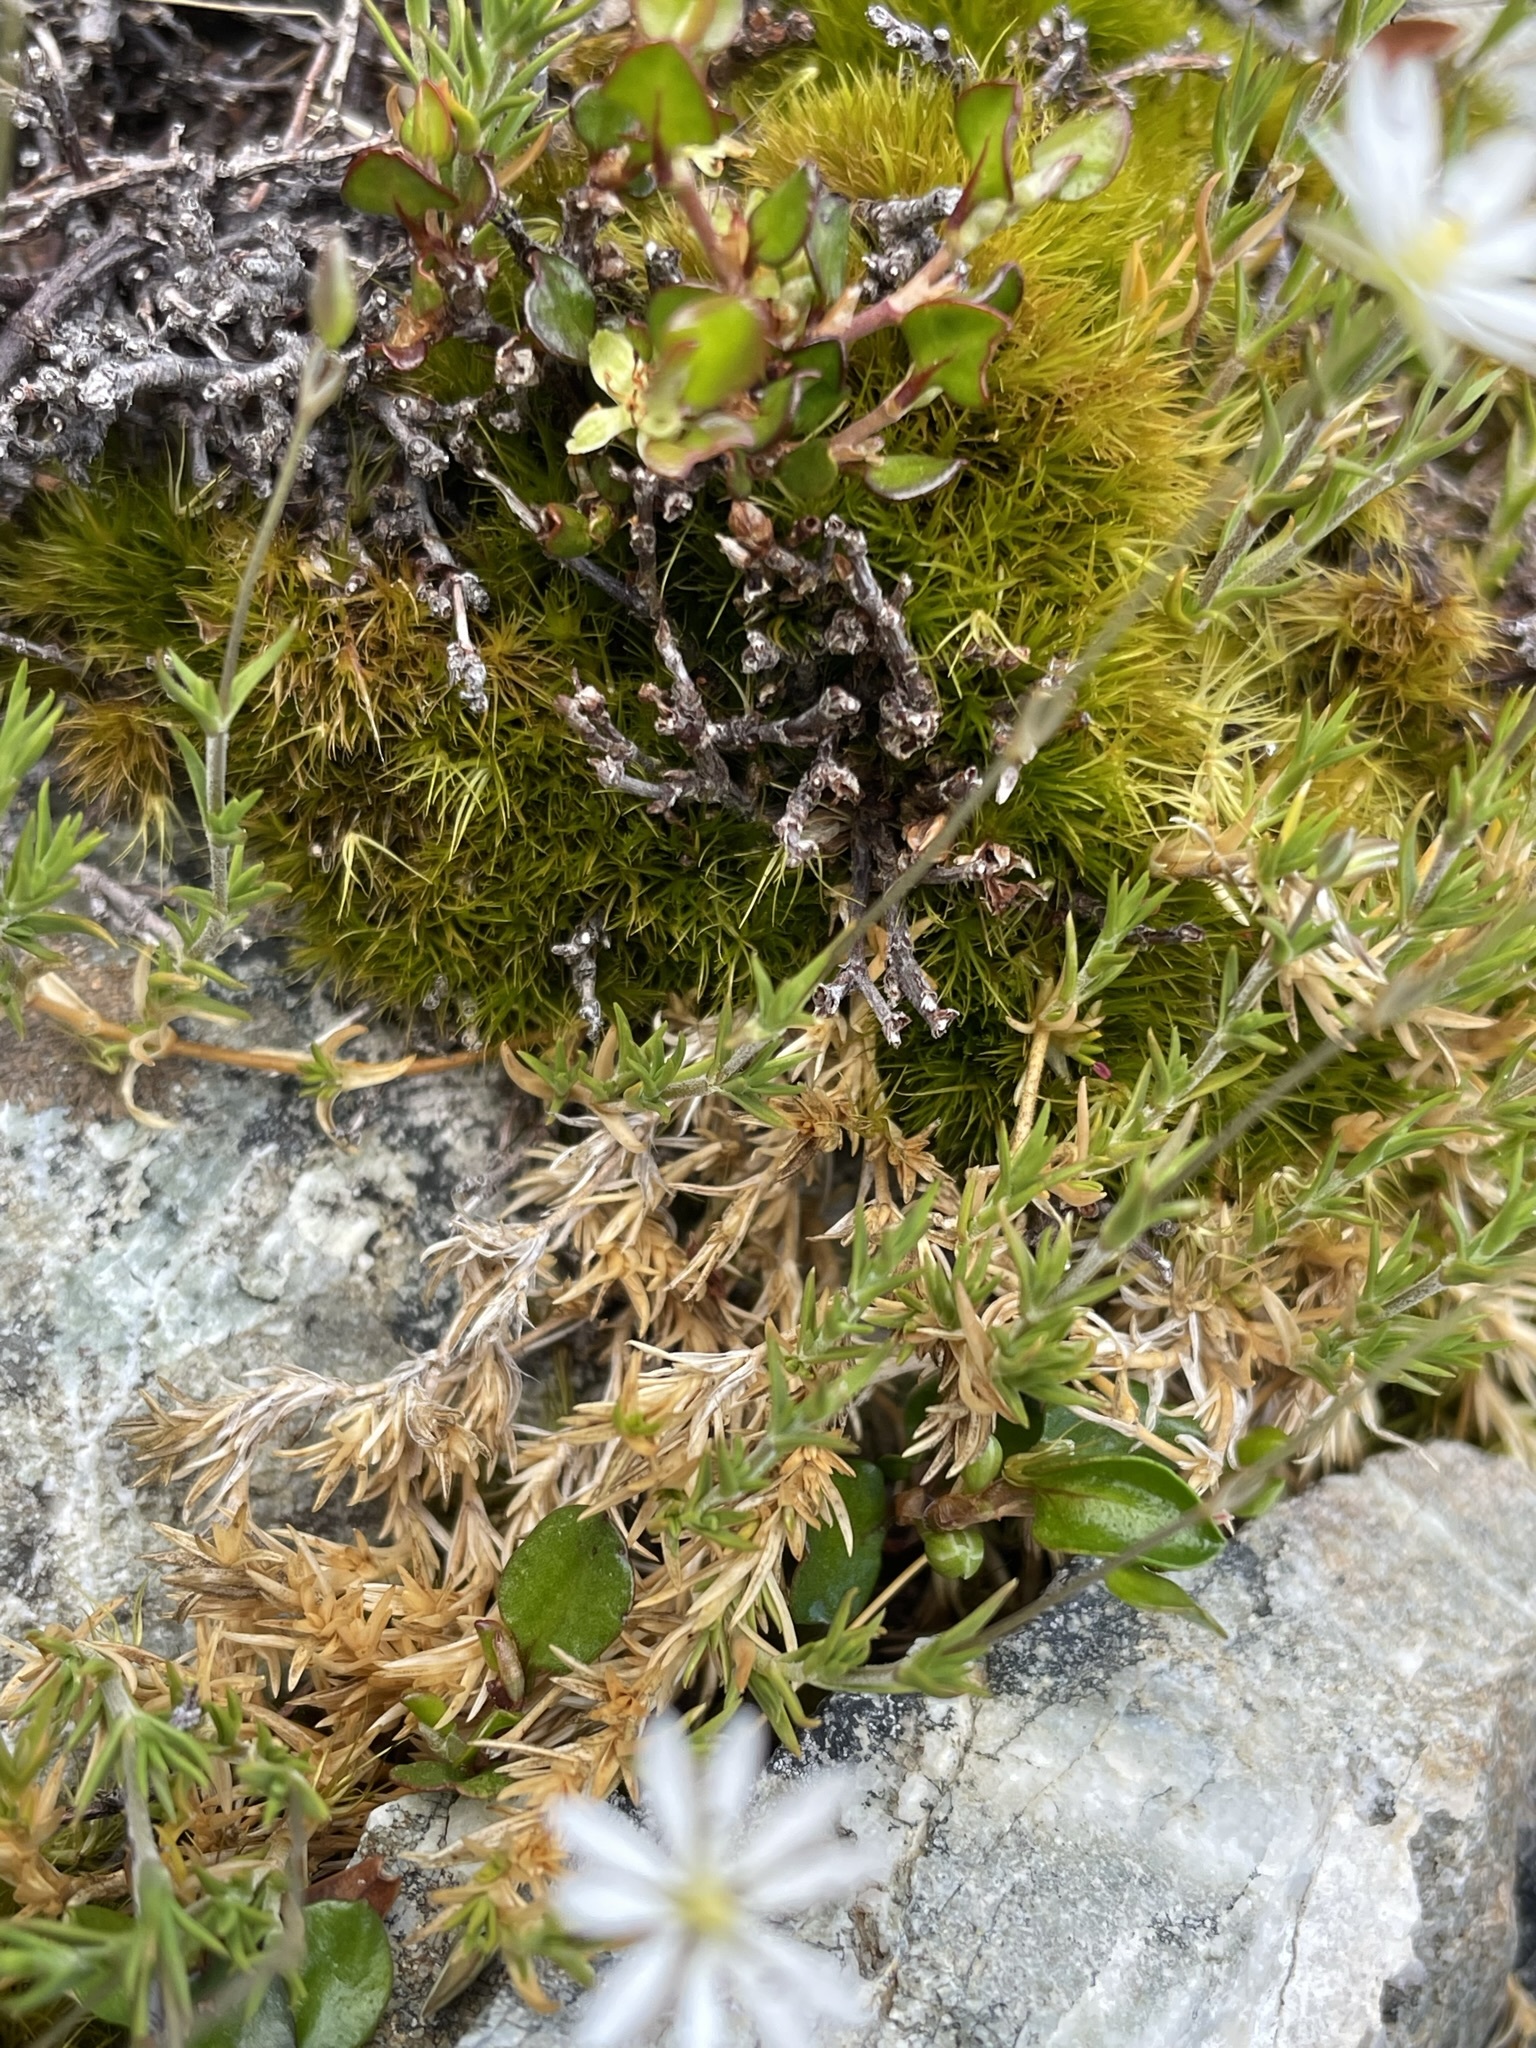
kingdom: Plantae
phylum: Tracheophyta
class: Magnoliopsida
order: Caryophyllales
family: Caryophyllaceae
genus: Stellaria
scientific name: Stellaria gracilenta
